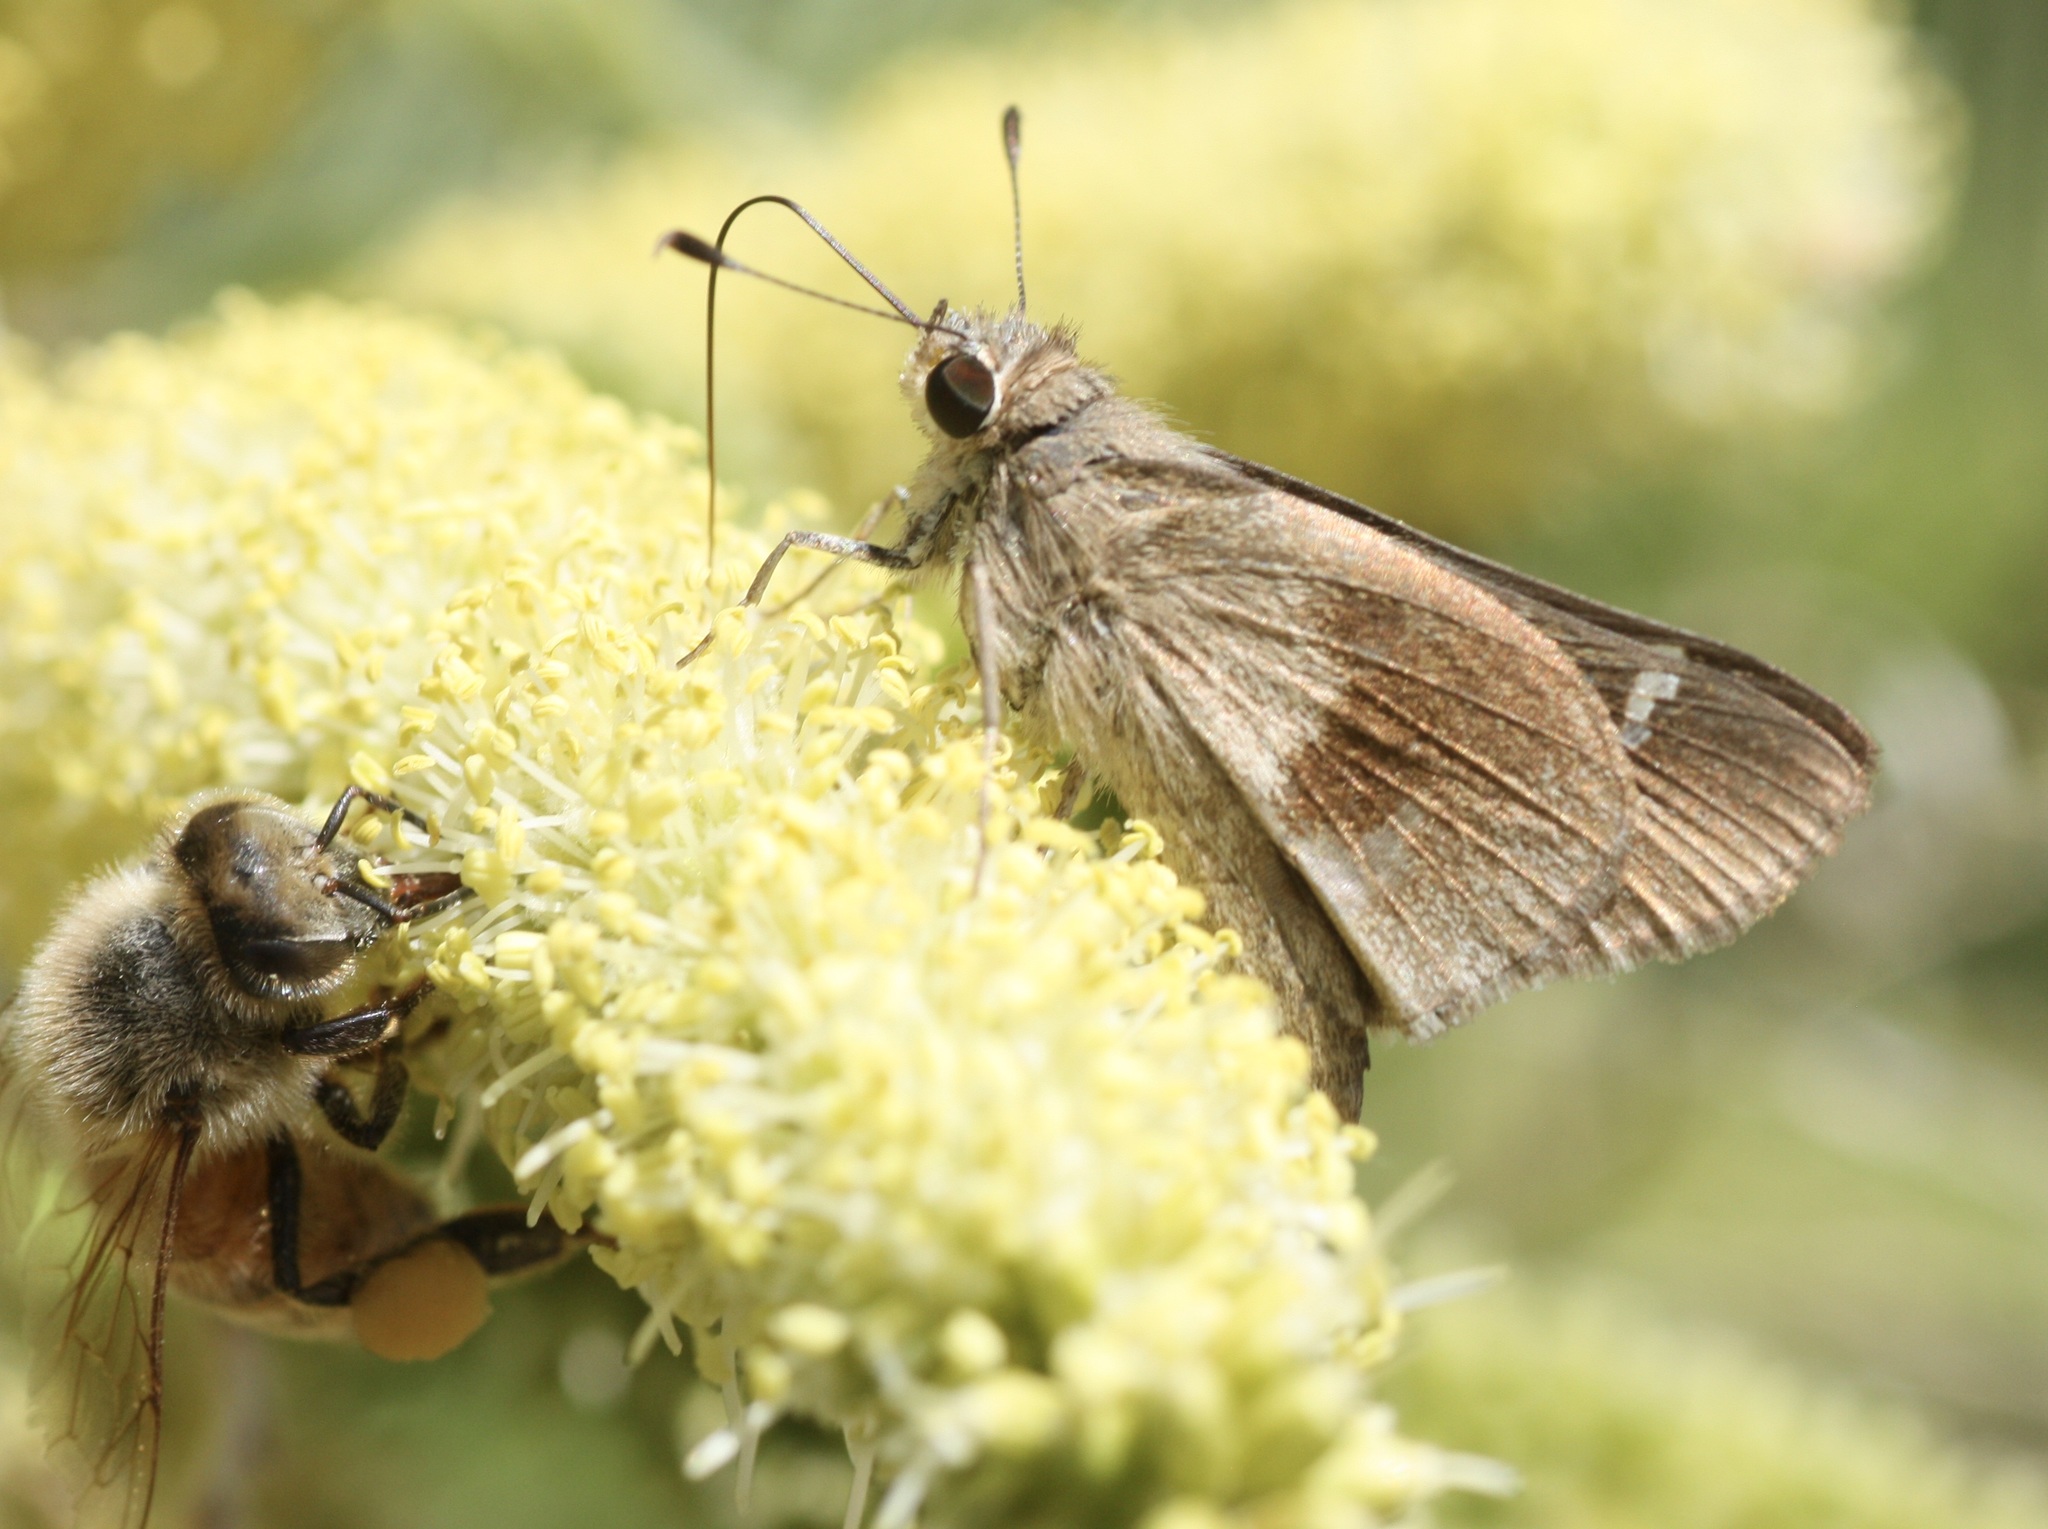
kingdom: Animalia
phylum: Arthropoda
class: Insecta
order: Lepidoptera
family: Hesperiidae
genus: Lerodea
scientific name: Lerodea arabus
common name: Violet-clouded skipper
